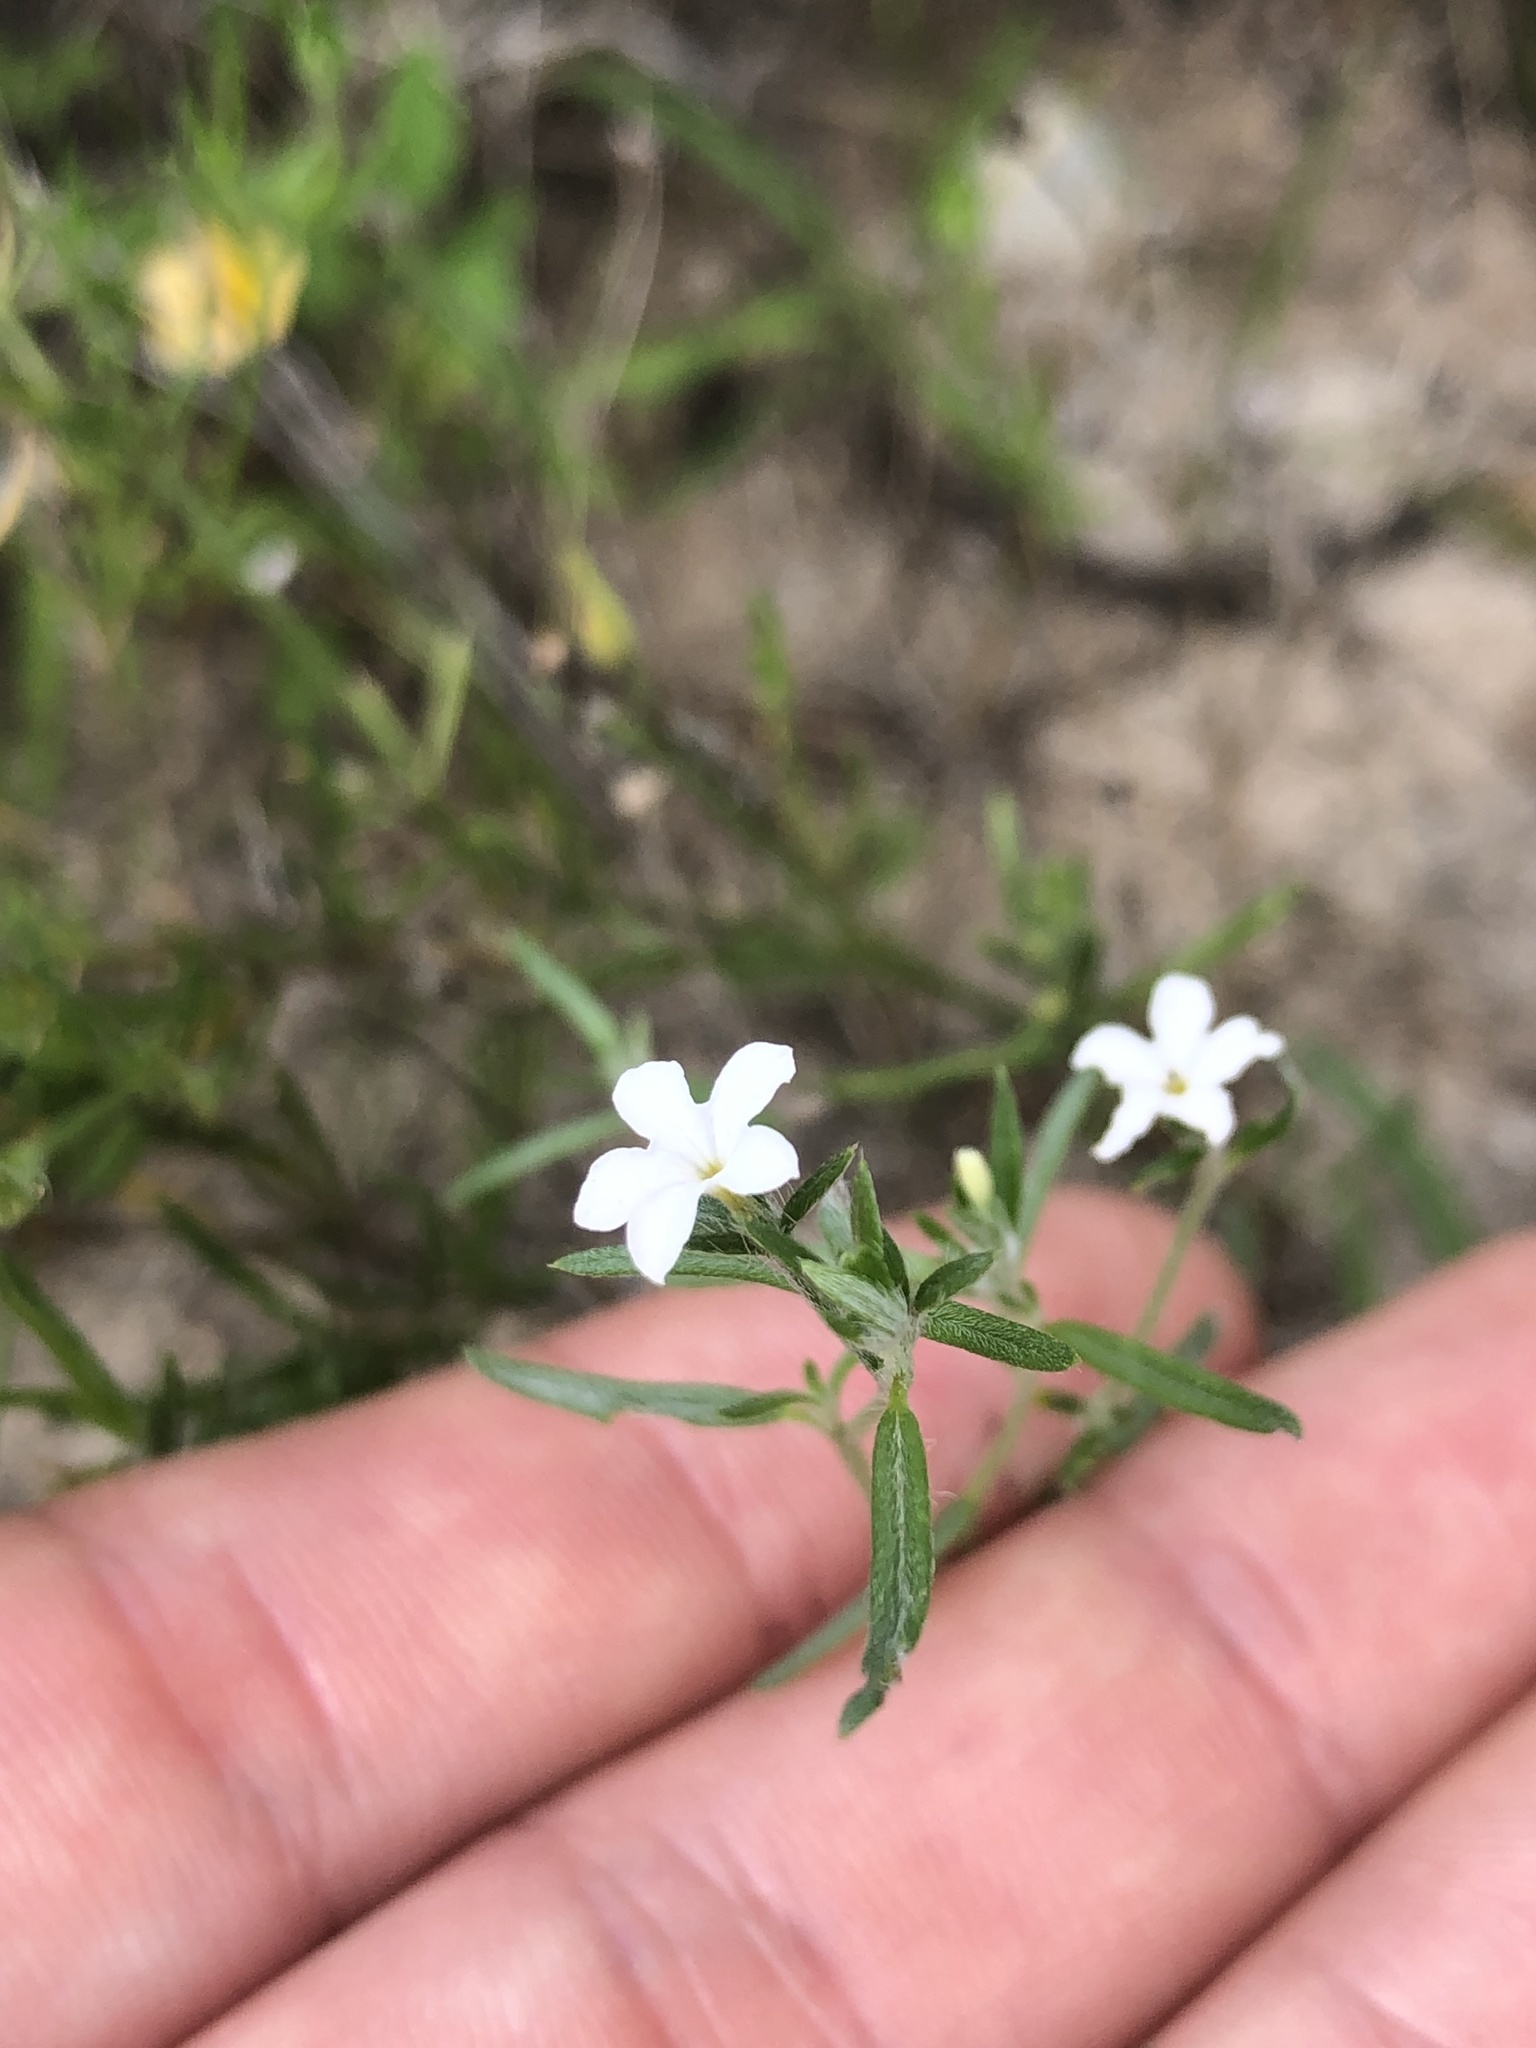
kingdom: Plantae
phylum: Tracheophyta
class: Magnoliopsida
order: Boraginales
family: Heliotropiaceae
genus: Euploca
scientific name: Euploca tenella
